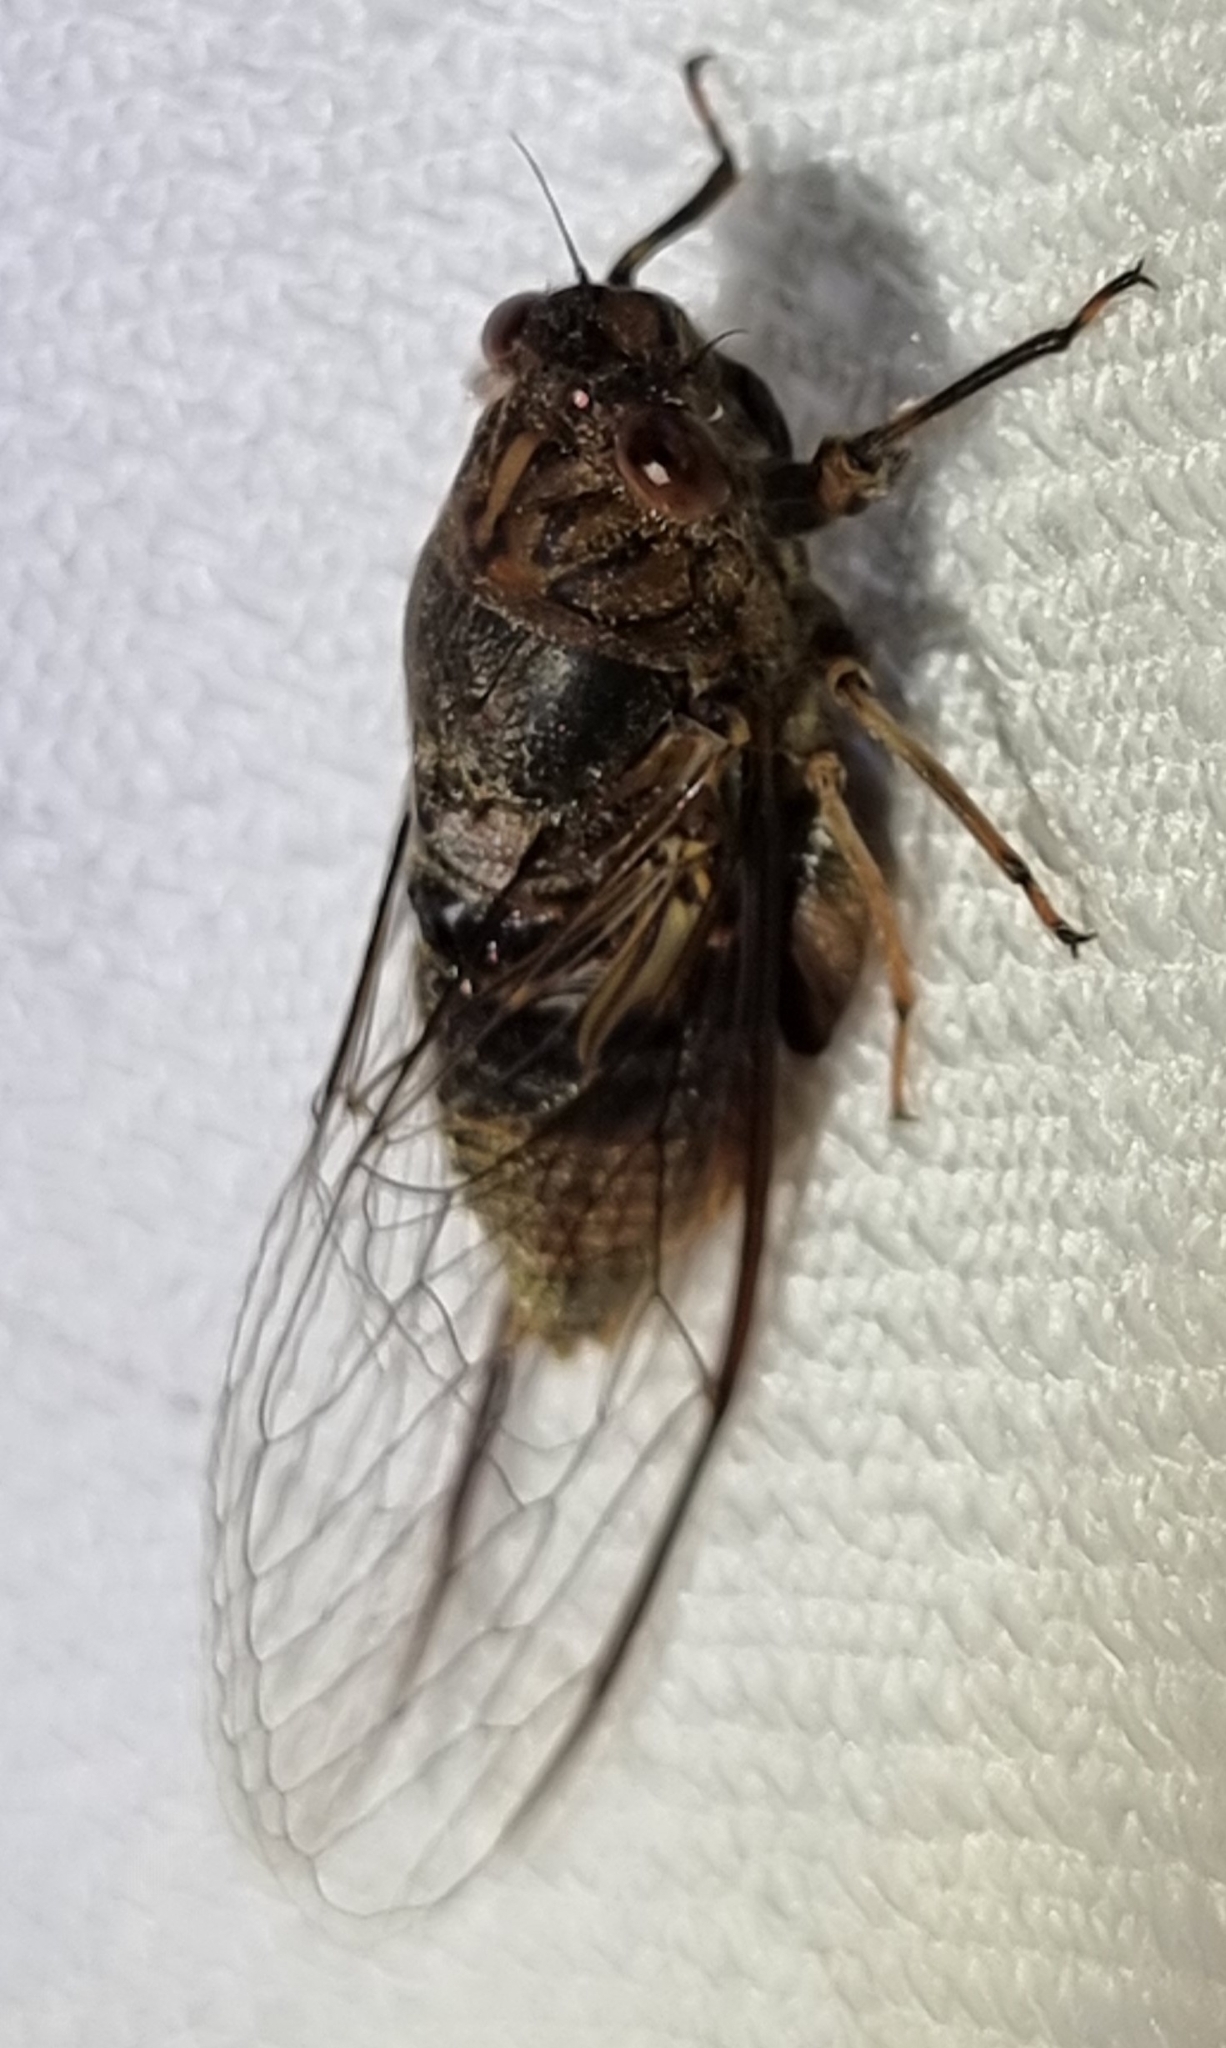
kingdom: Animalia
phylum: Arthropoda
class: Insecta
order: Hemiptera
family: Cicadidae
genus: Birrima
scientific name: Birrima varians
